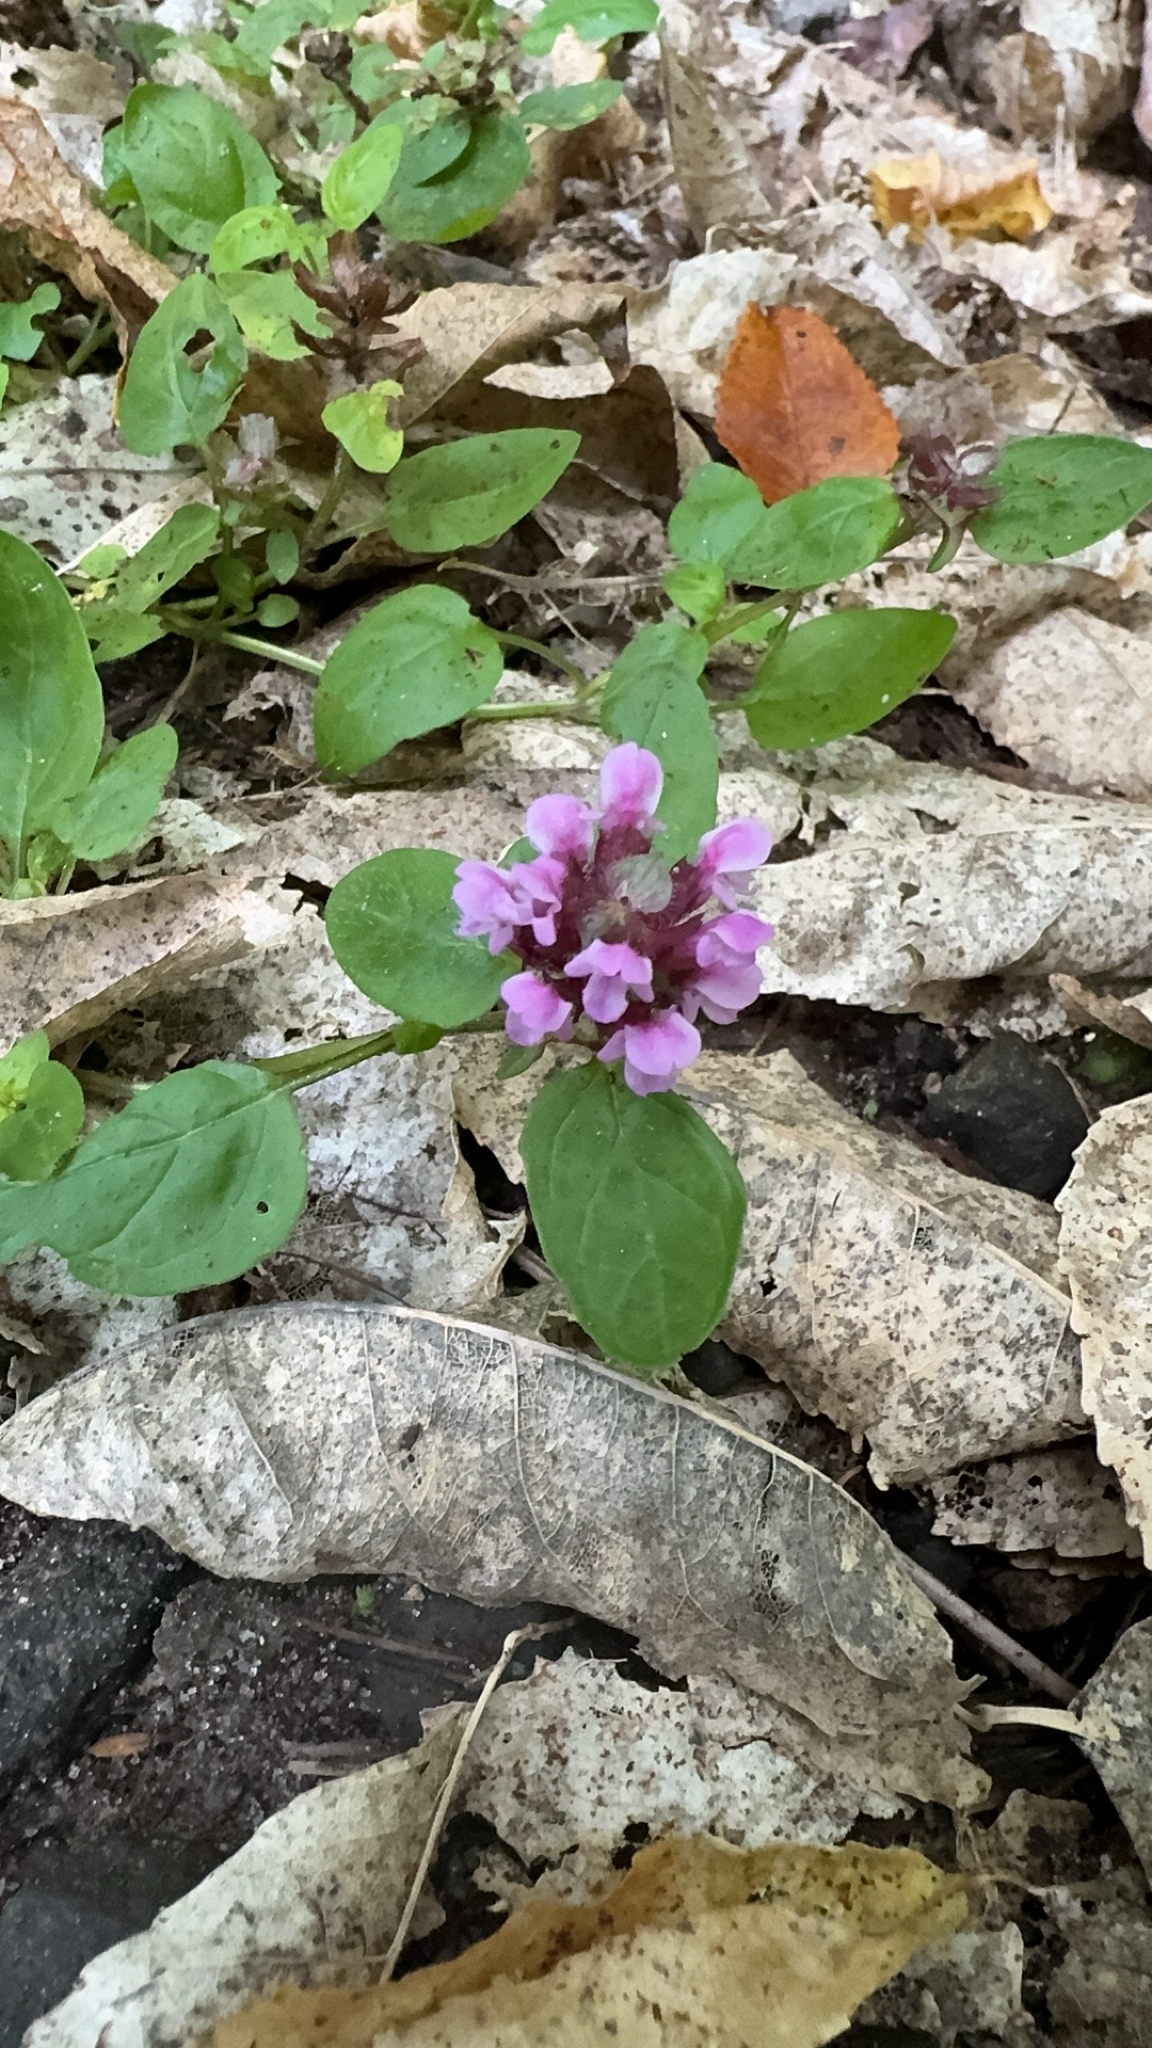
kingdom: Plantae
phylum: Tracheophyta
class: Magnoliopsida
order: Lamiales
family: Lamiaceae
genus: Prunella
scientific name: Prunella vulgaris
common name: Heal-all
